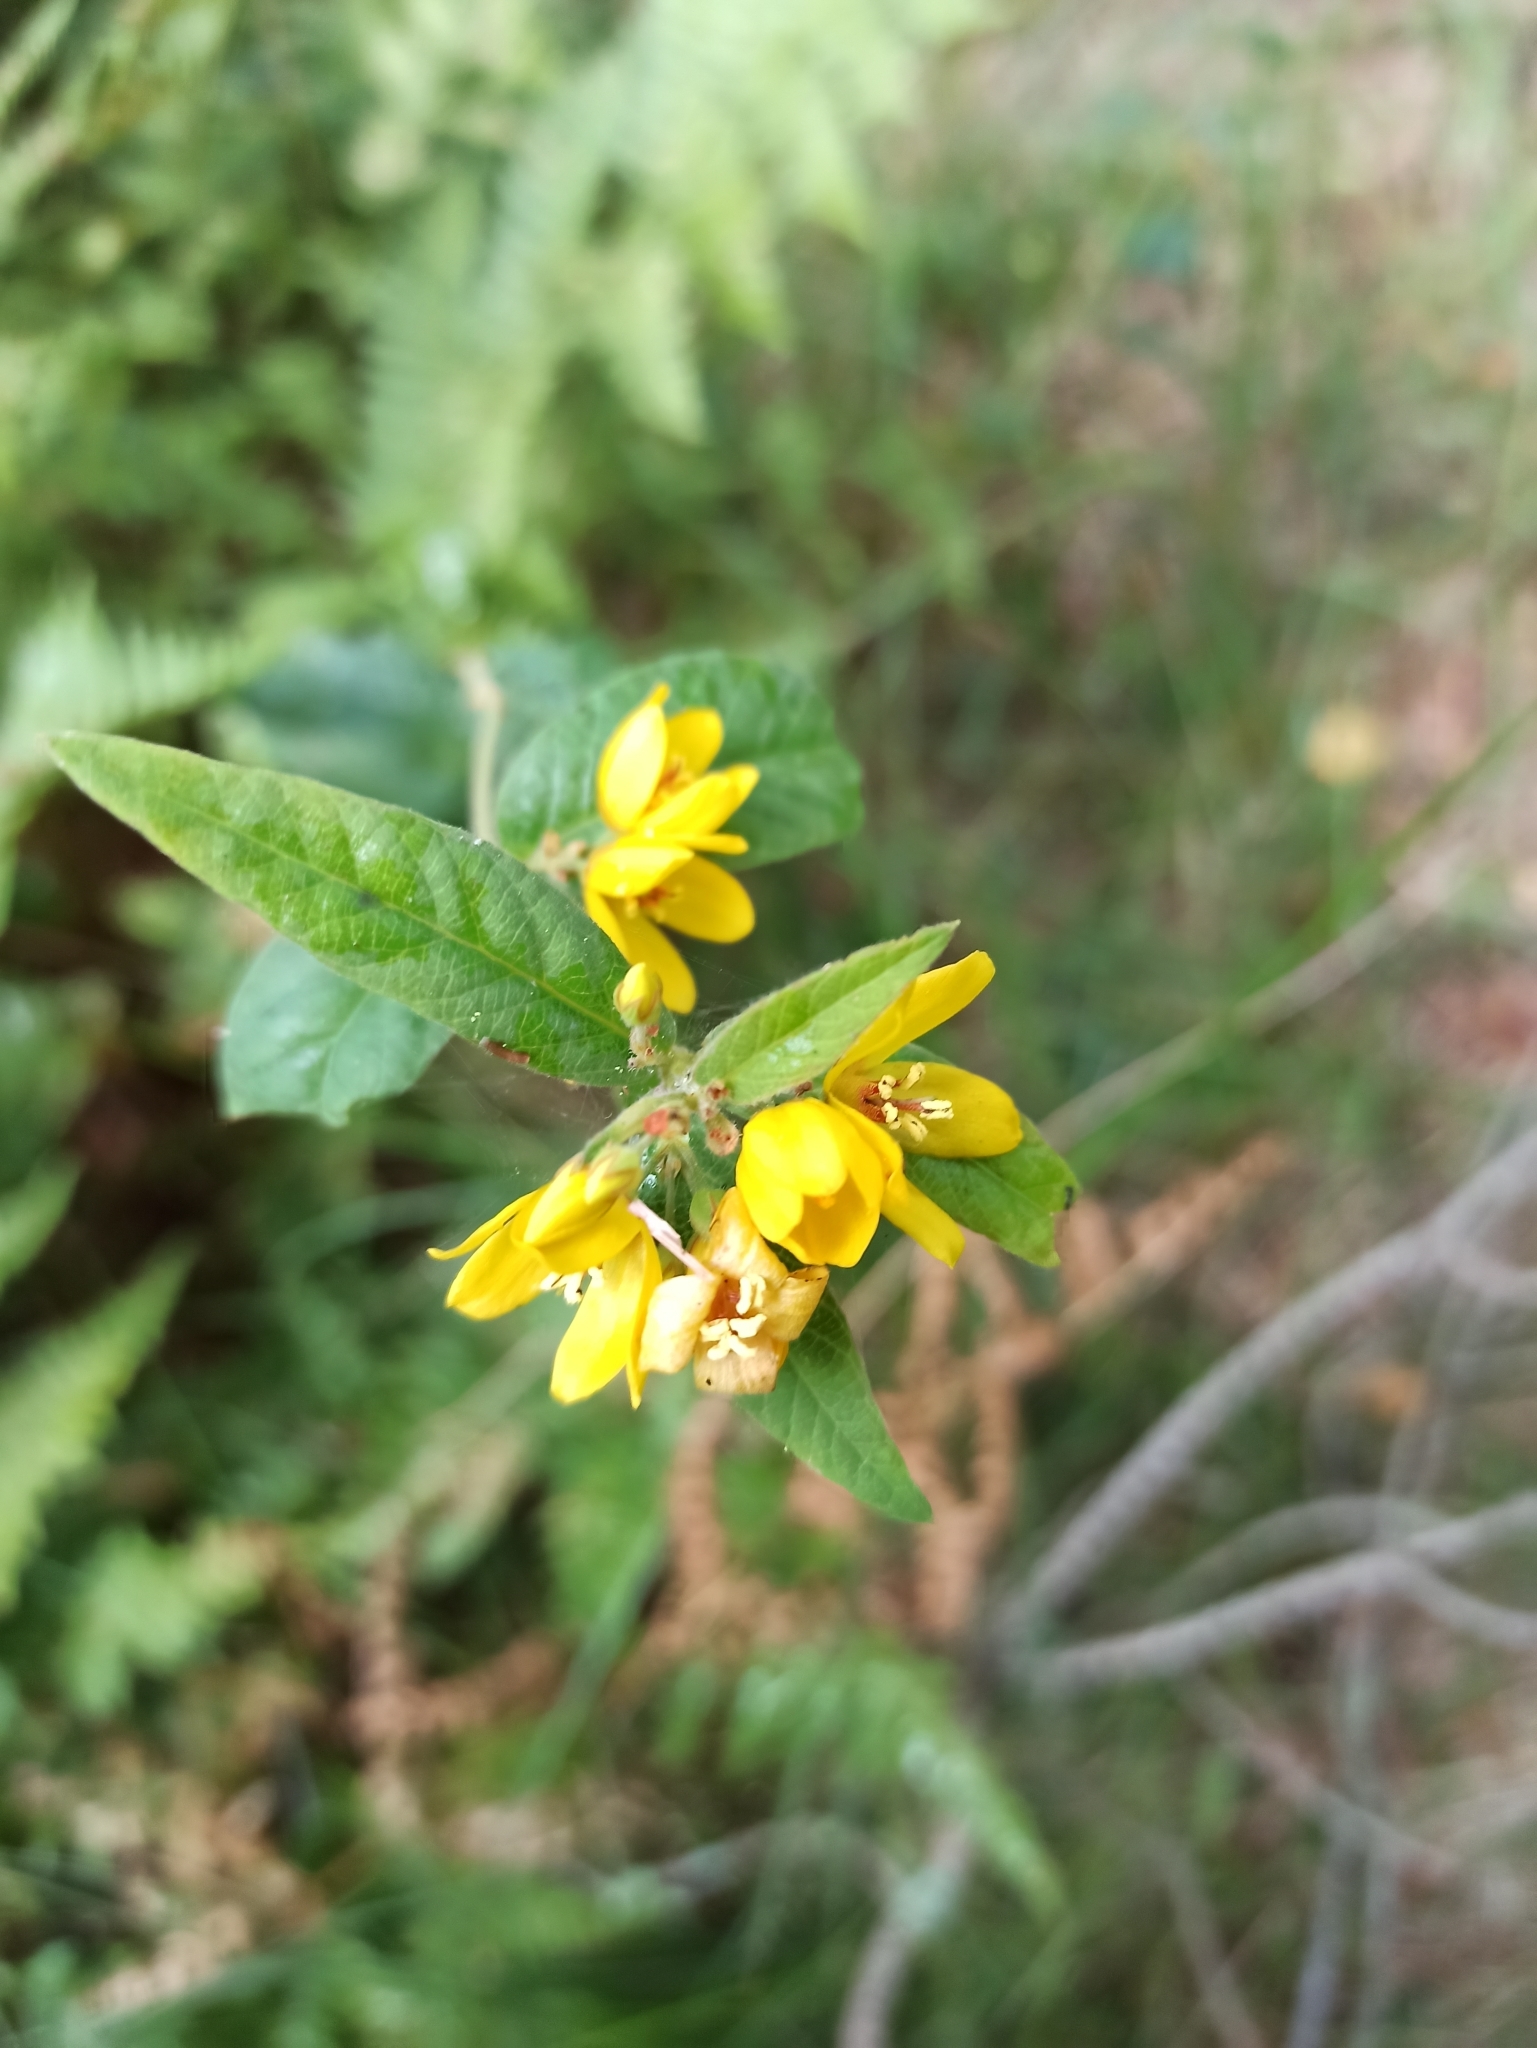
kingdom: Plantae
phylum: Tracheophyta
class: Magnoliopsida
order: Ericales
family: Primulaceae
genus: Lysimachia
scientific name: Lysimachia vulgaris
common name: Yellow loosestrife
